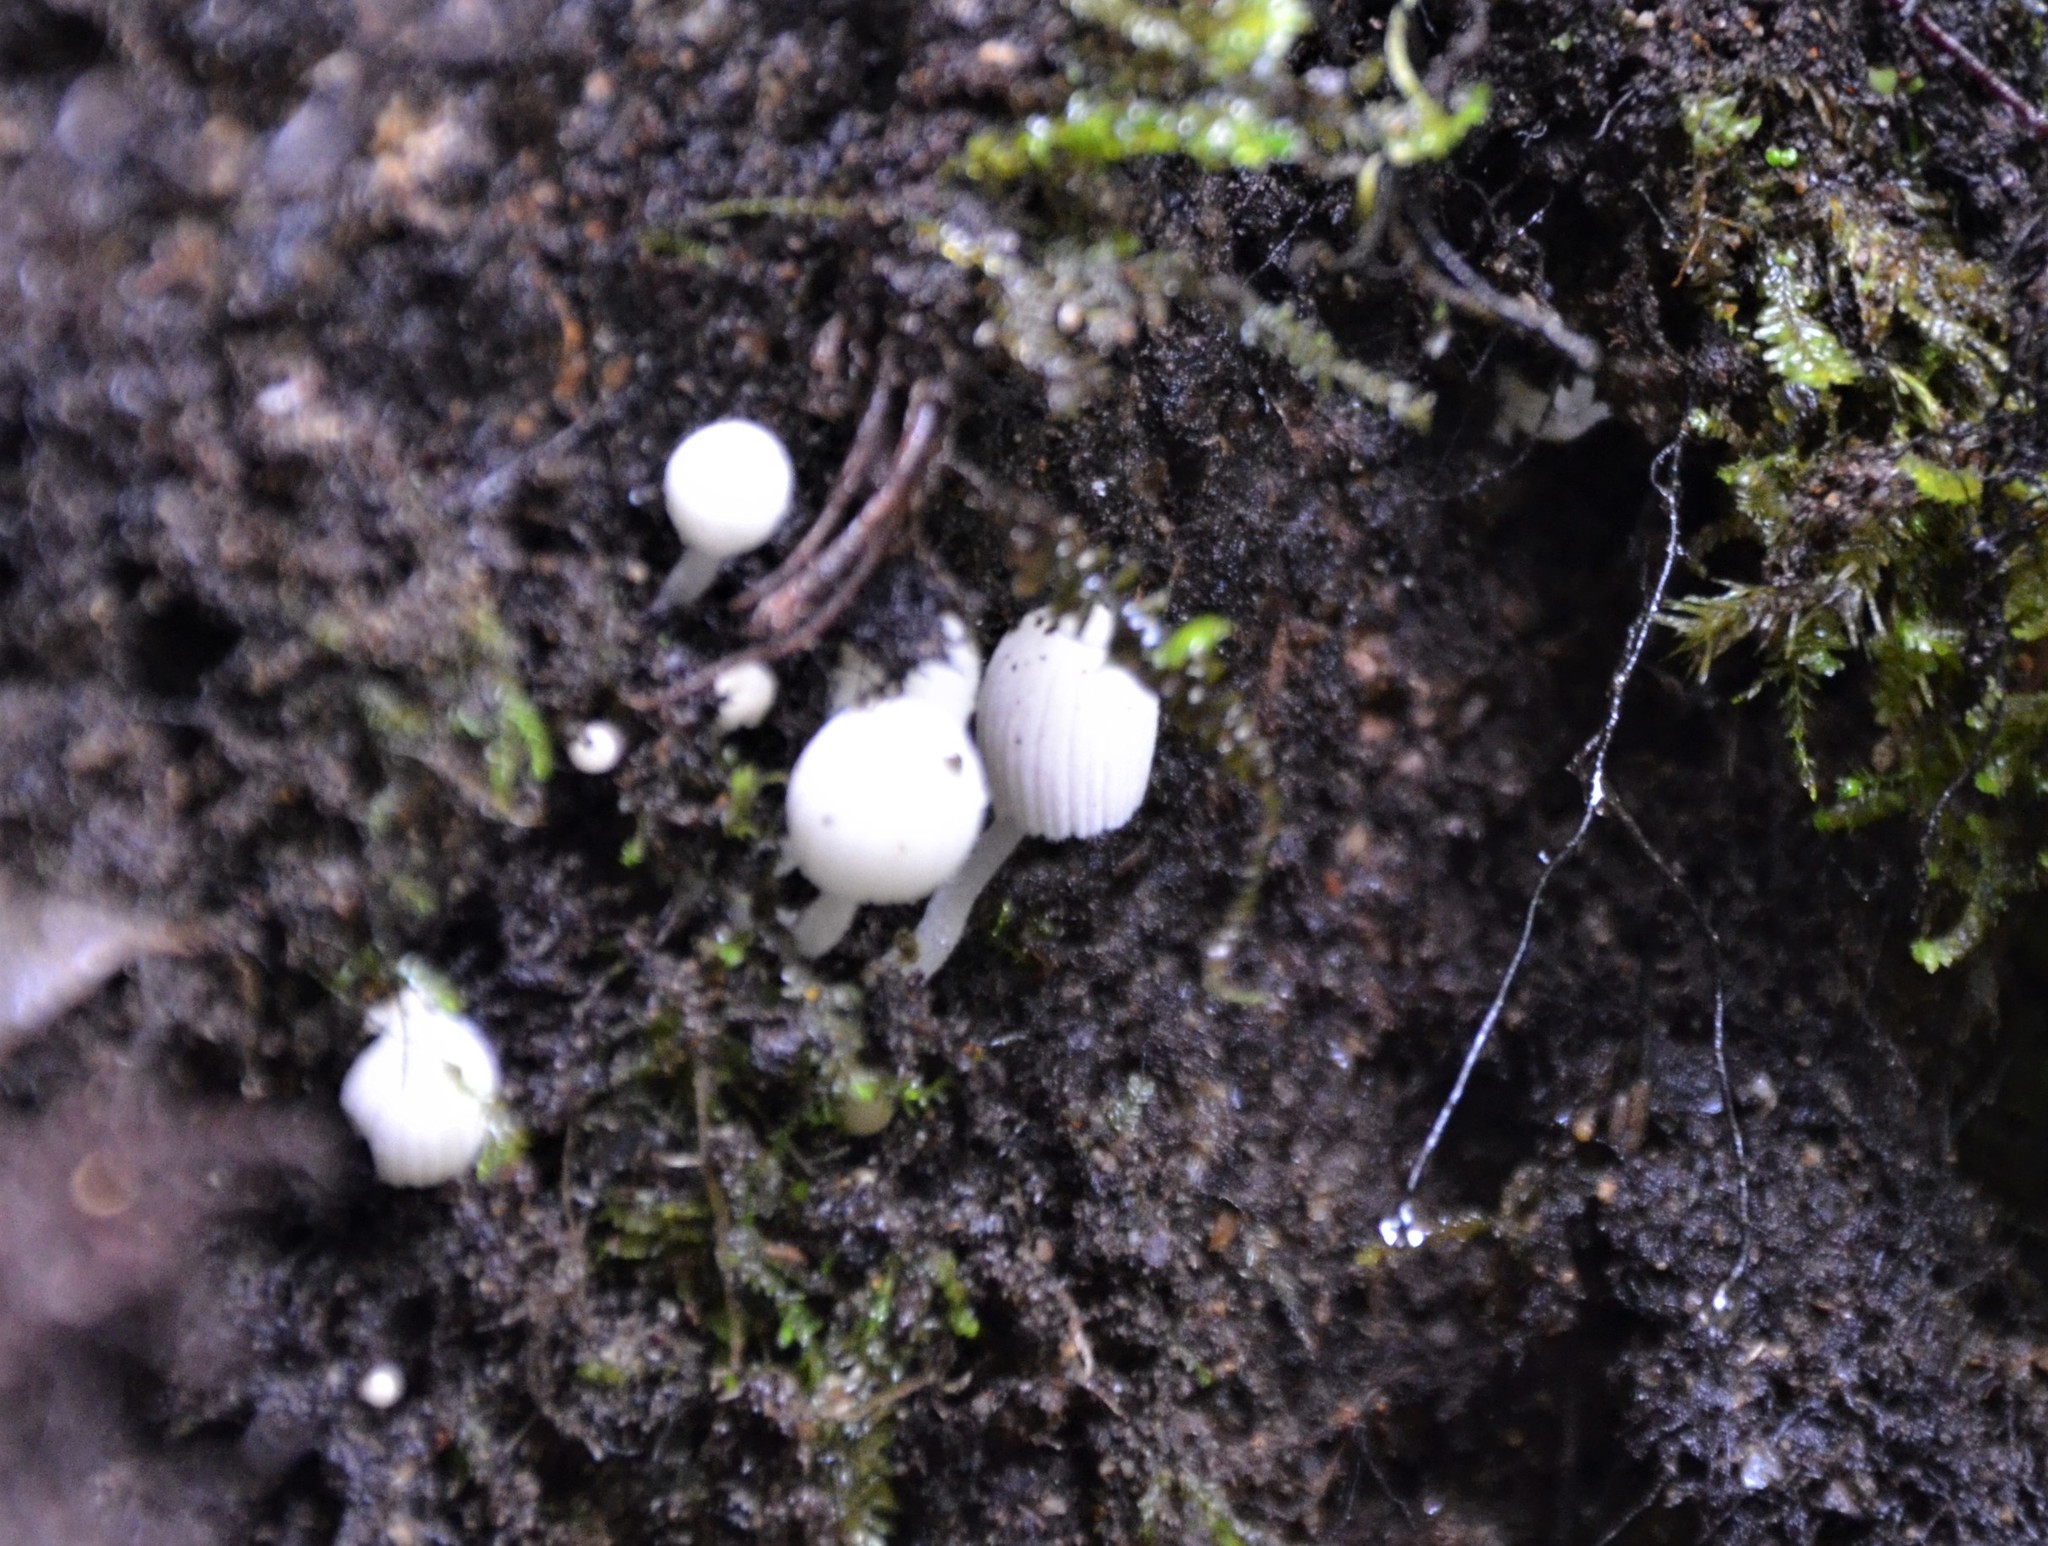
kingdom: Fungi
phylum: Basidiomycota
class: Agaricomycetes
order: Agaricales
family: Psathyrellaceae
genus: Coprinellus
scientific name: Coprinellus disseminatus
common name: Fairies' bonnets
